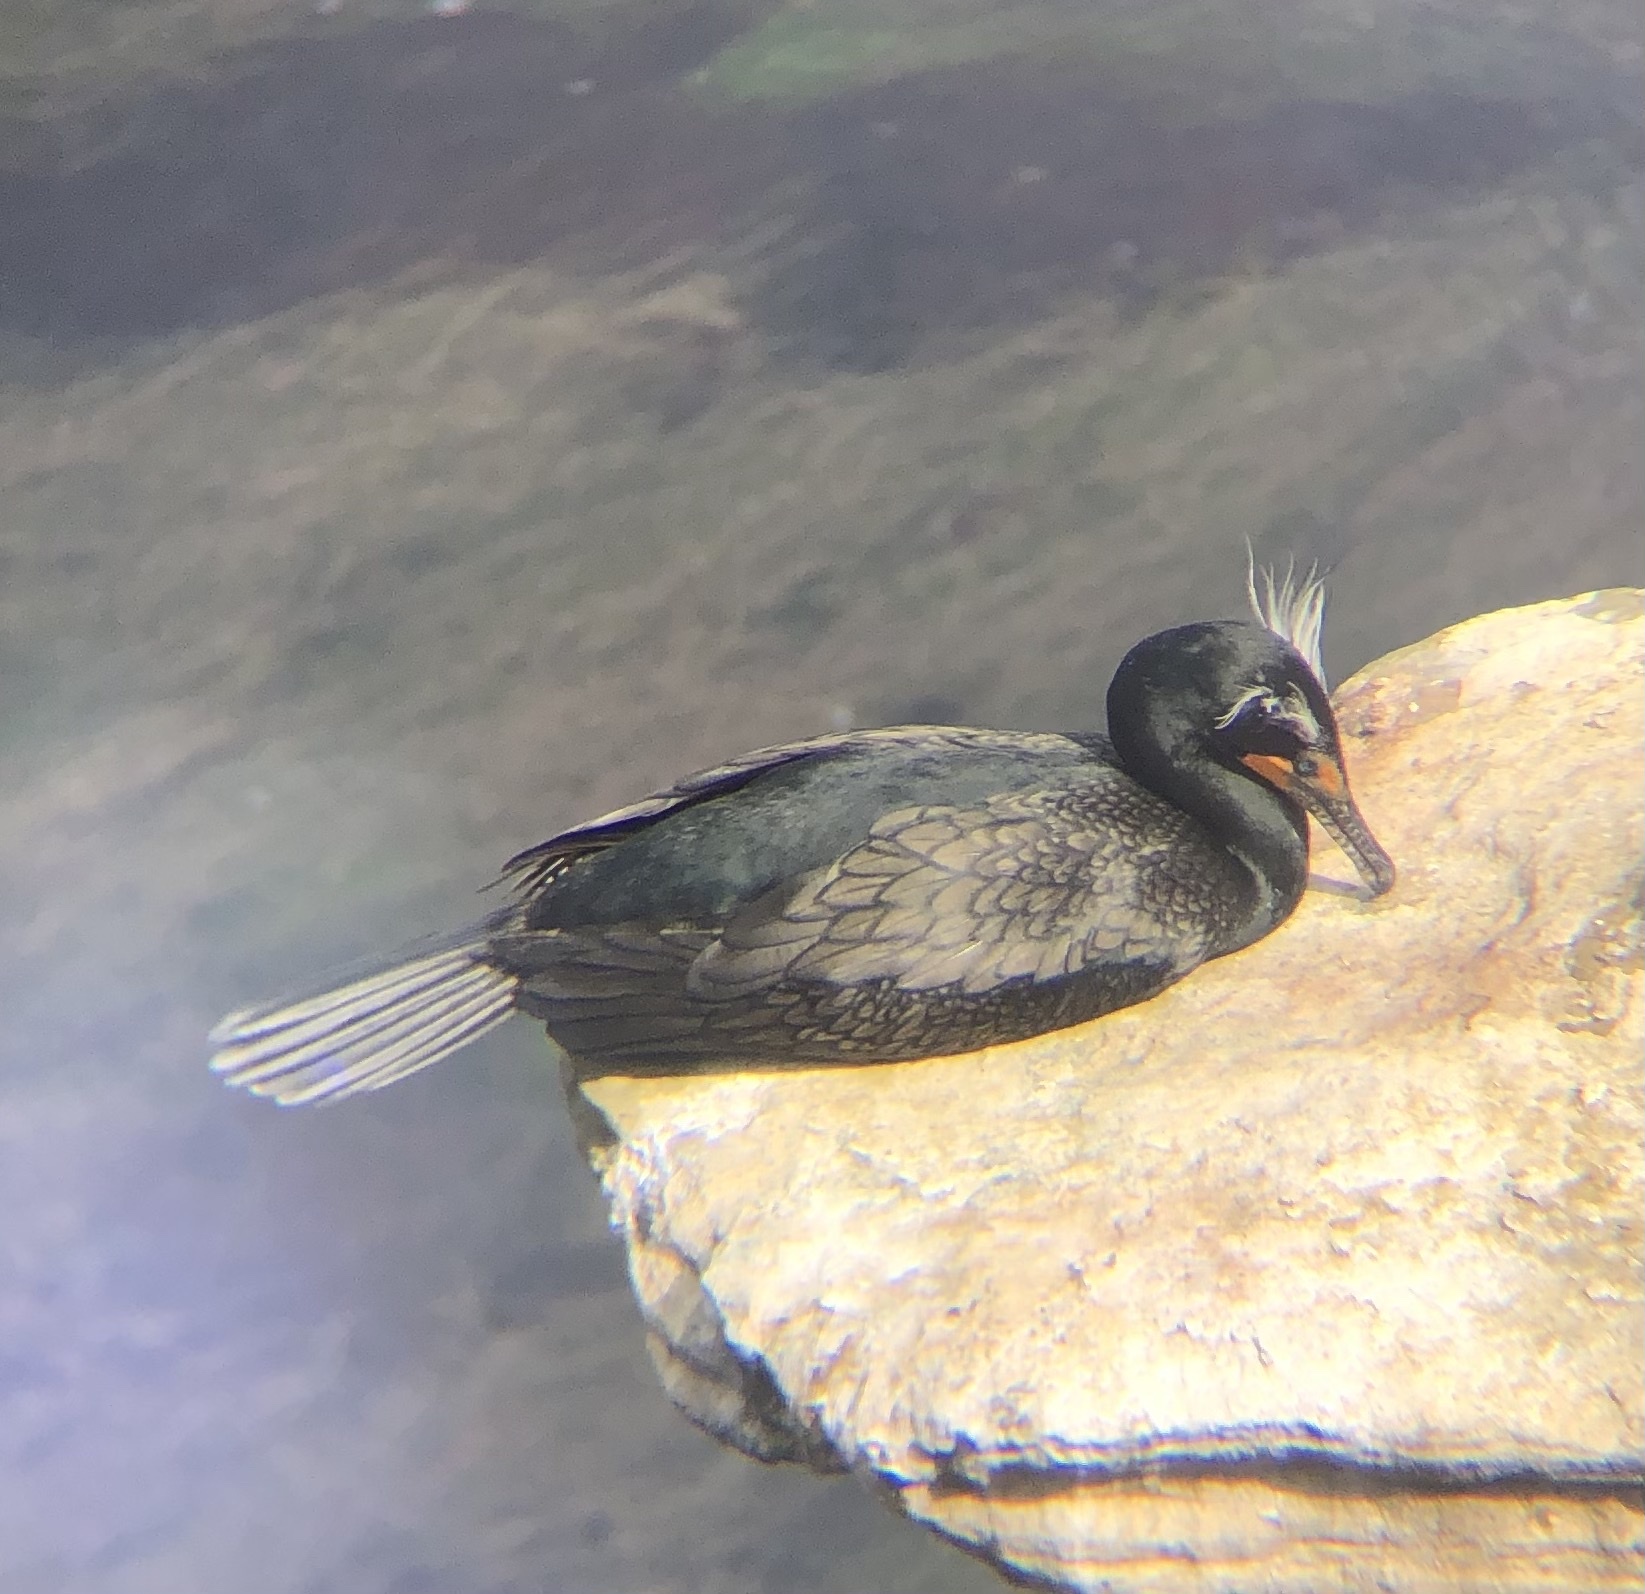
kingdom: Animalia
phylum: Chordata
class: Aves
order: Suliformes
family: Phalacrocoracidae
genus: Phalacrocorax
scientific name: Phalacrocorax auritus
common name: Double-crested cormorant
